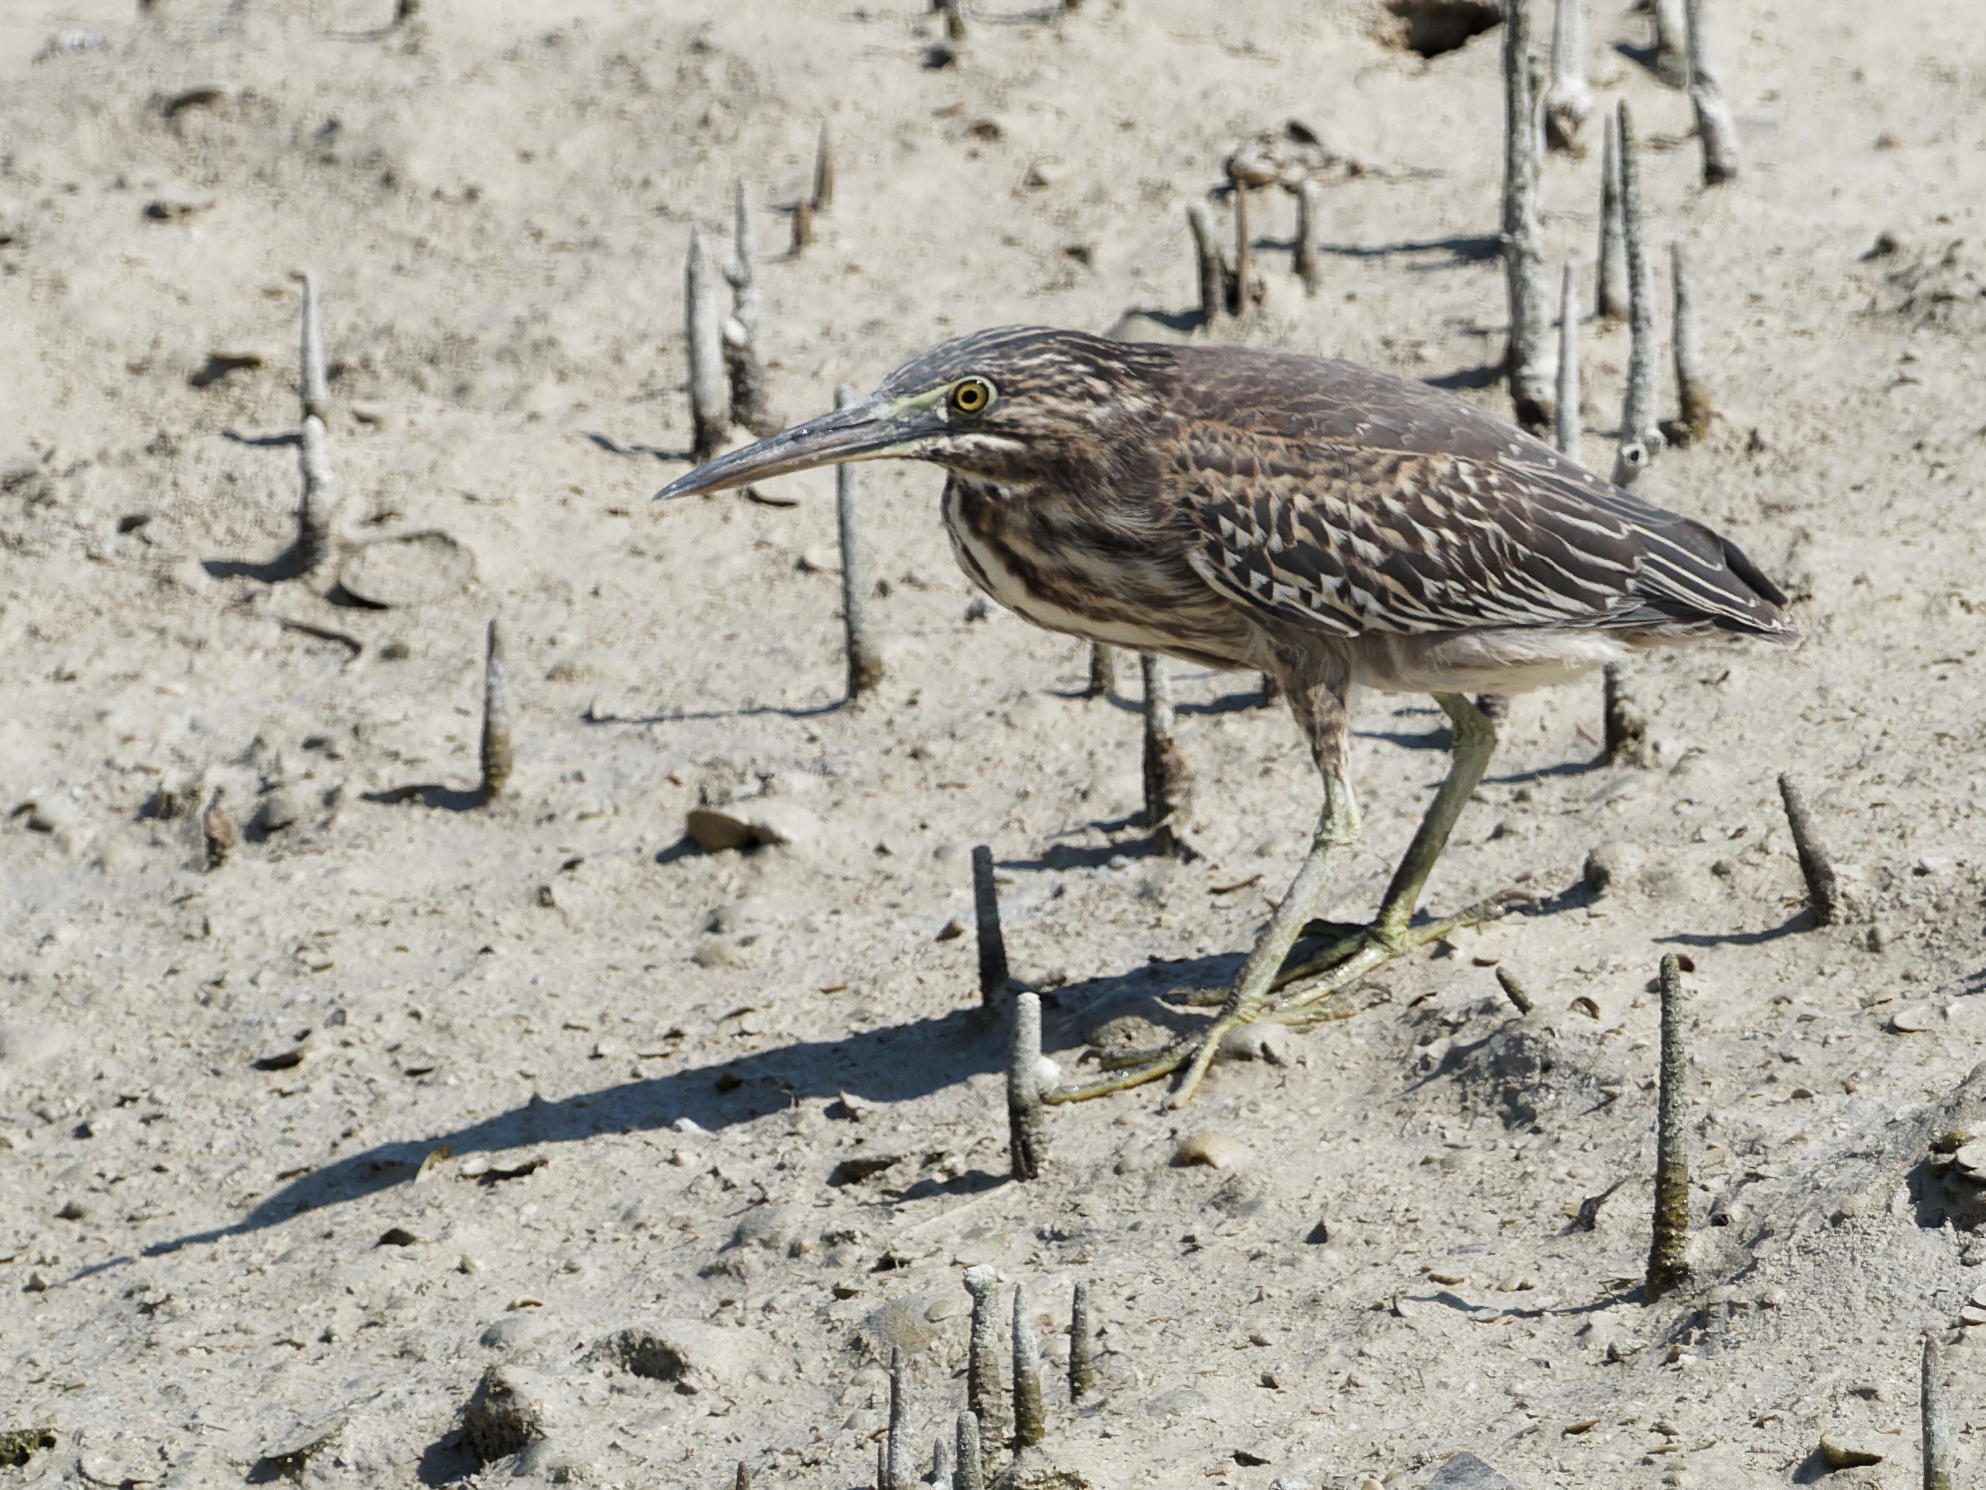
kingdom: Animalia
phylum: Chordata
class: Aves
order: Pelecaniformes
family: Ardeidae
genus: Butorides
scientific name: Butorides striata
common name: Striated heron
